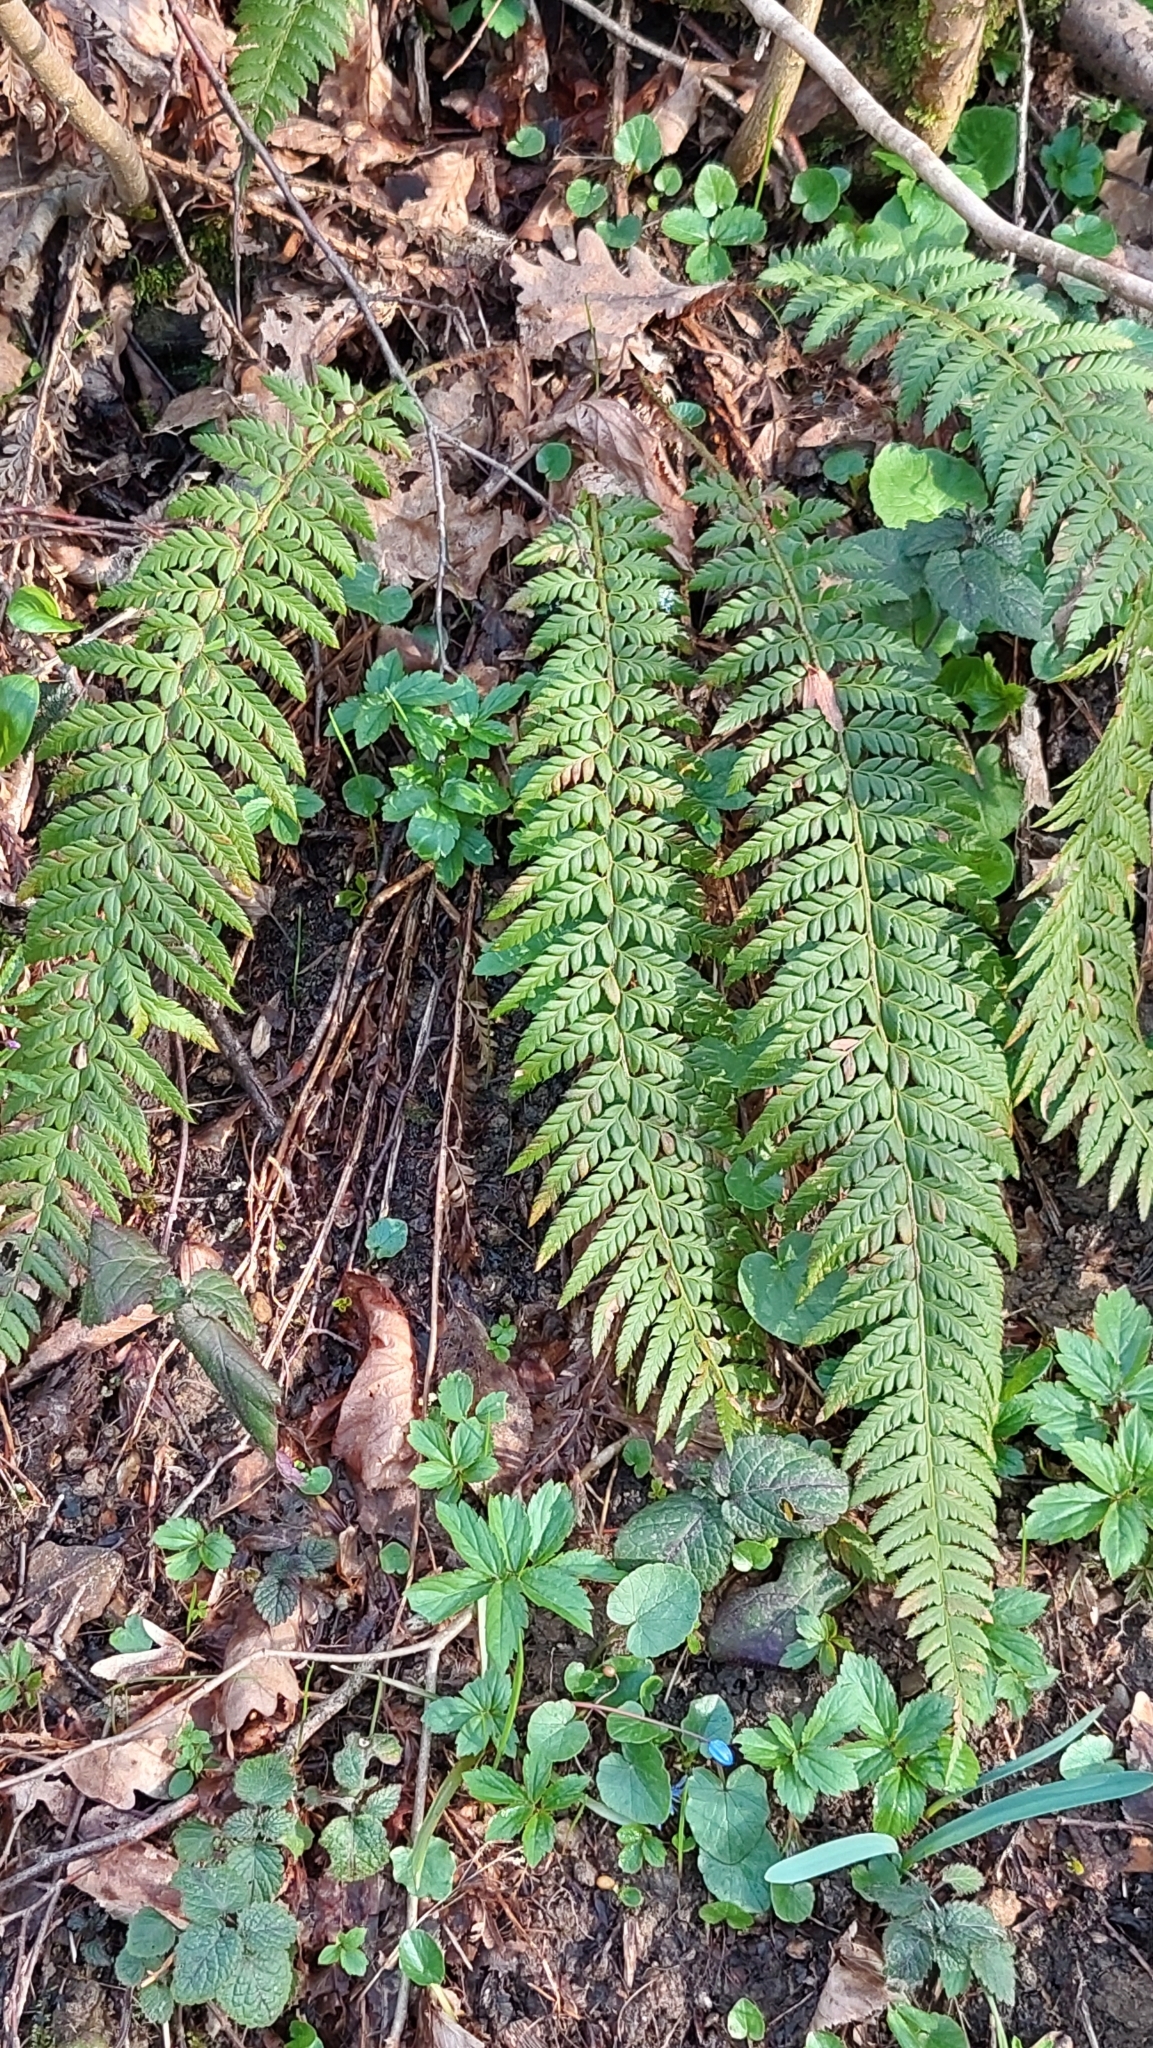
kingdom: Plantae
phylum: Tracheophyta
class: Polypodiopsida
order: Polypodiales
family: Dryopteridaceae
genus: Polystichum
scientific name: Polystichum aculeatum
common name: Hard shield-fern
